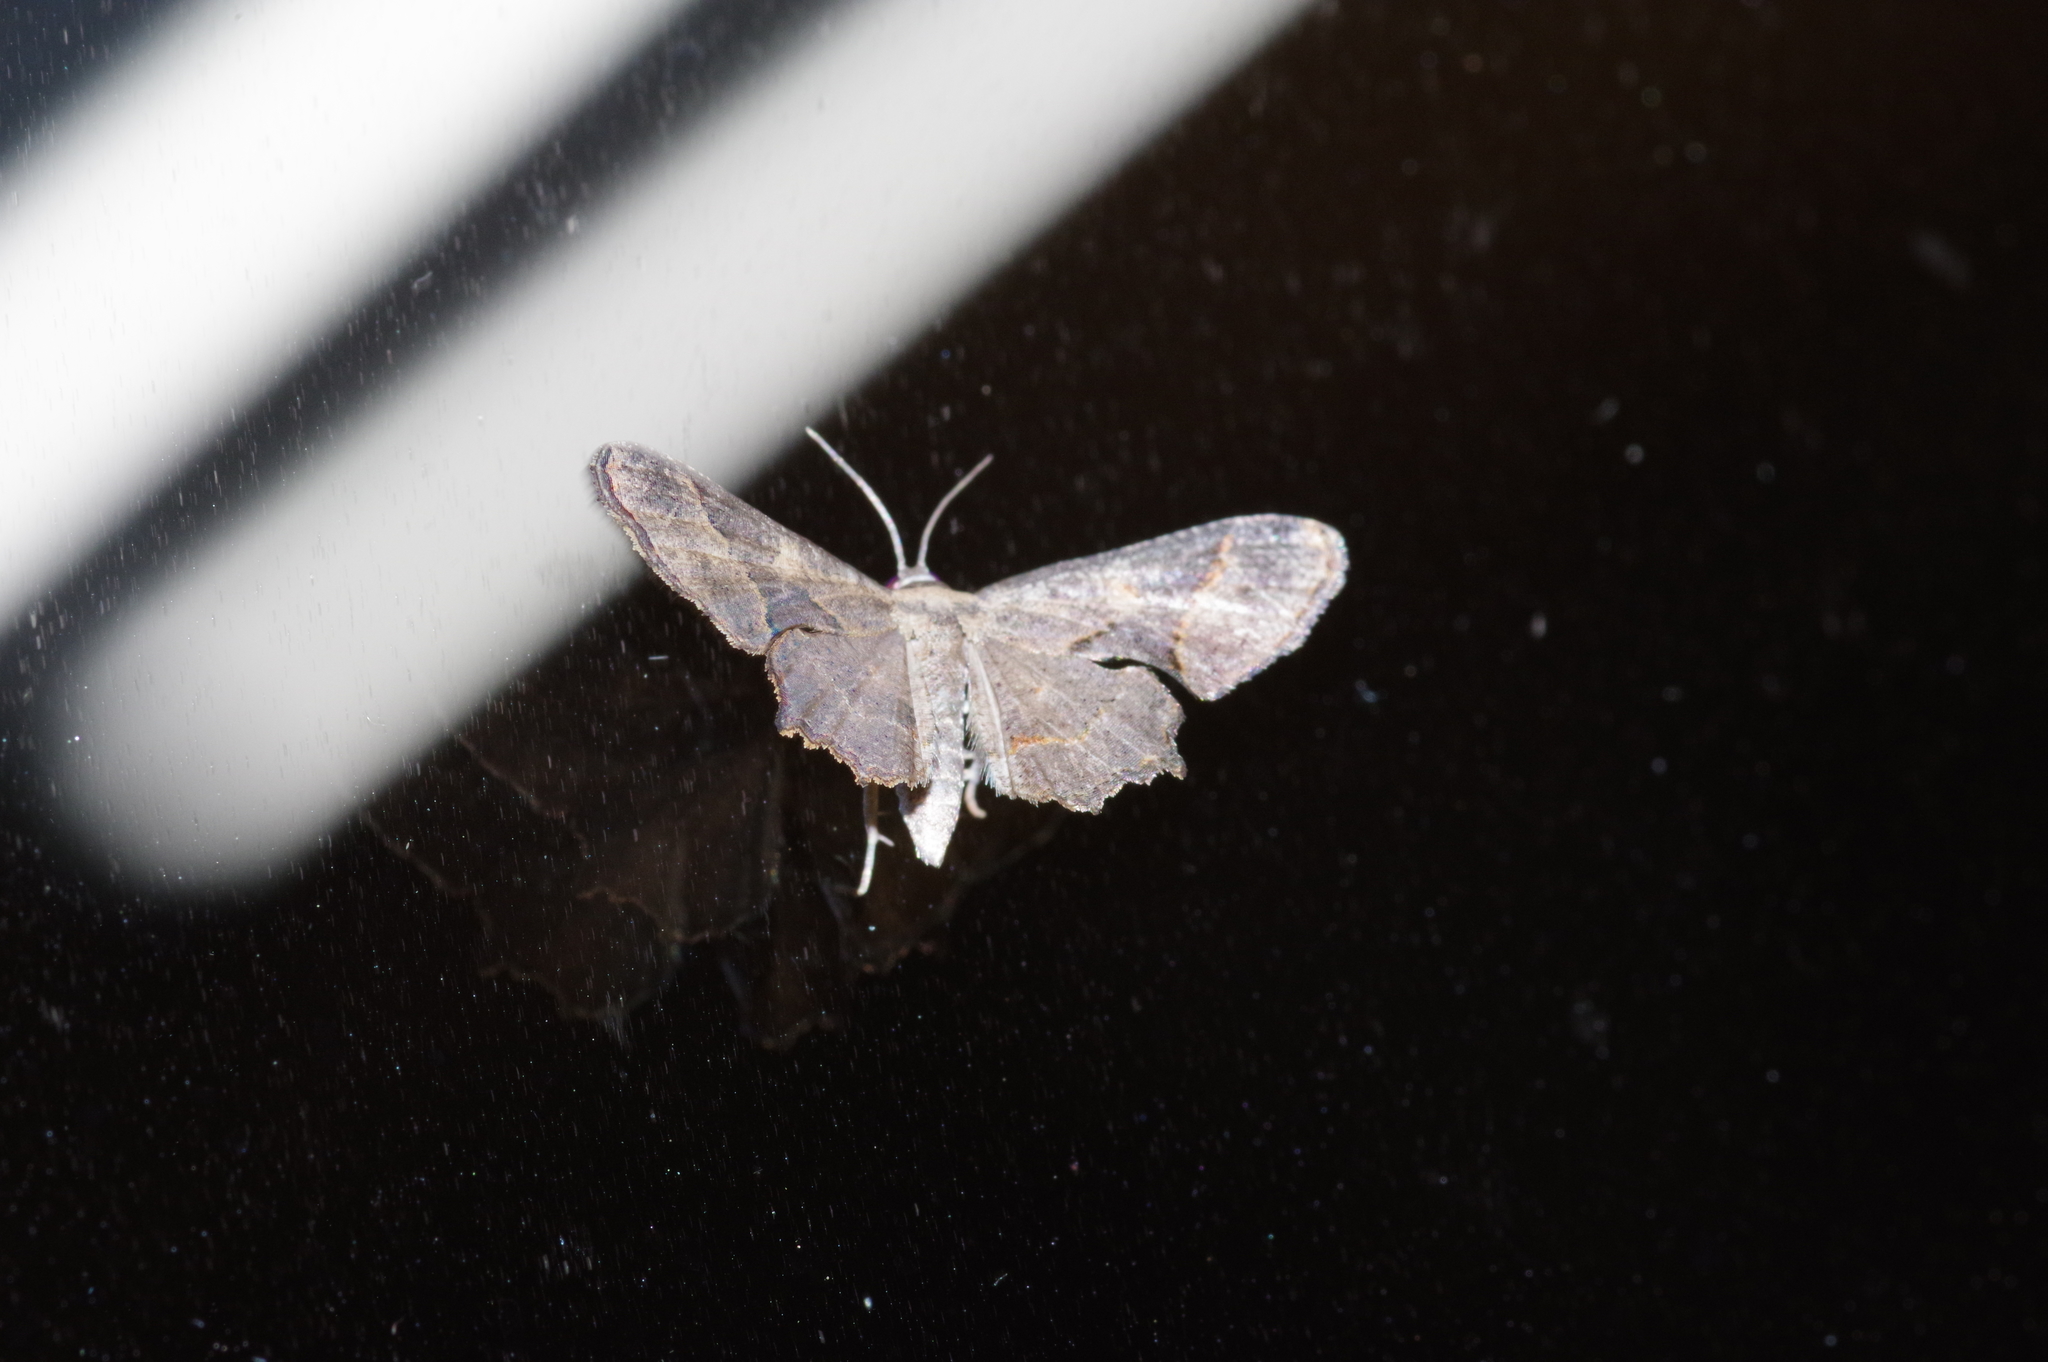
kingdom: Animalia
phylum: Arthropoda
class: Insecta
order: Lepidoptera
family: Uraniidae
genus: Monobolodes
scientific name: Monobolodes prunaria
